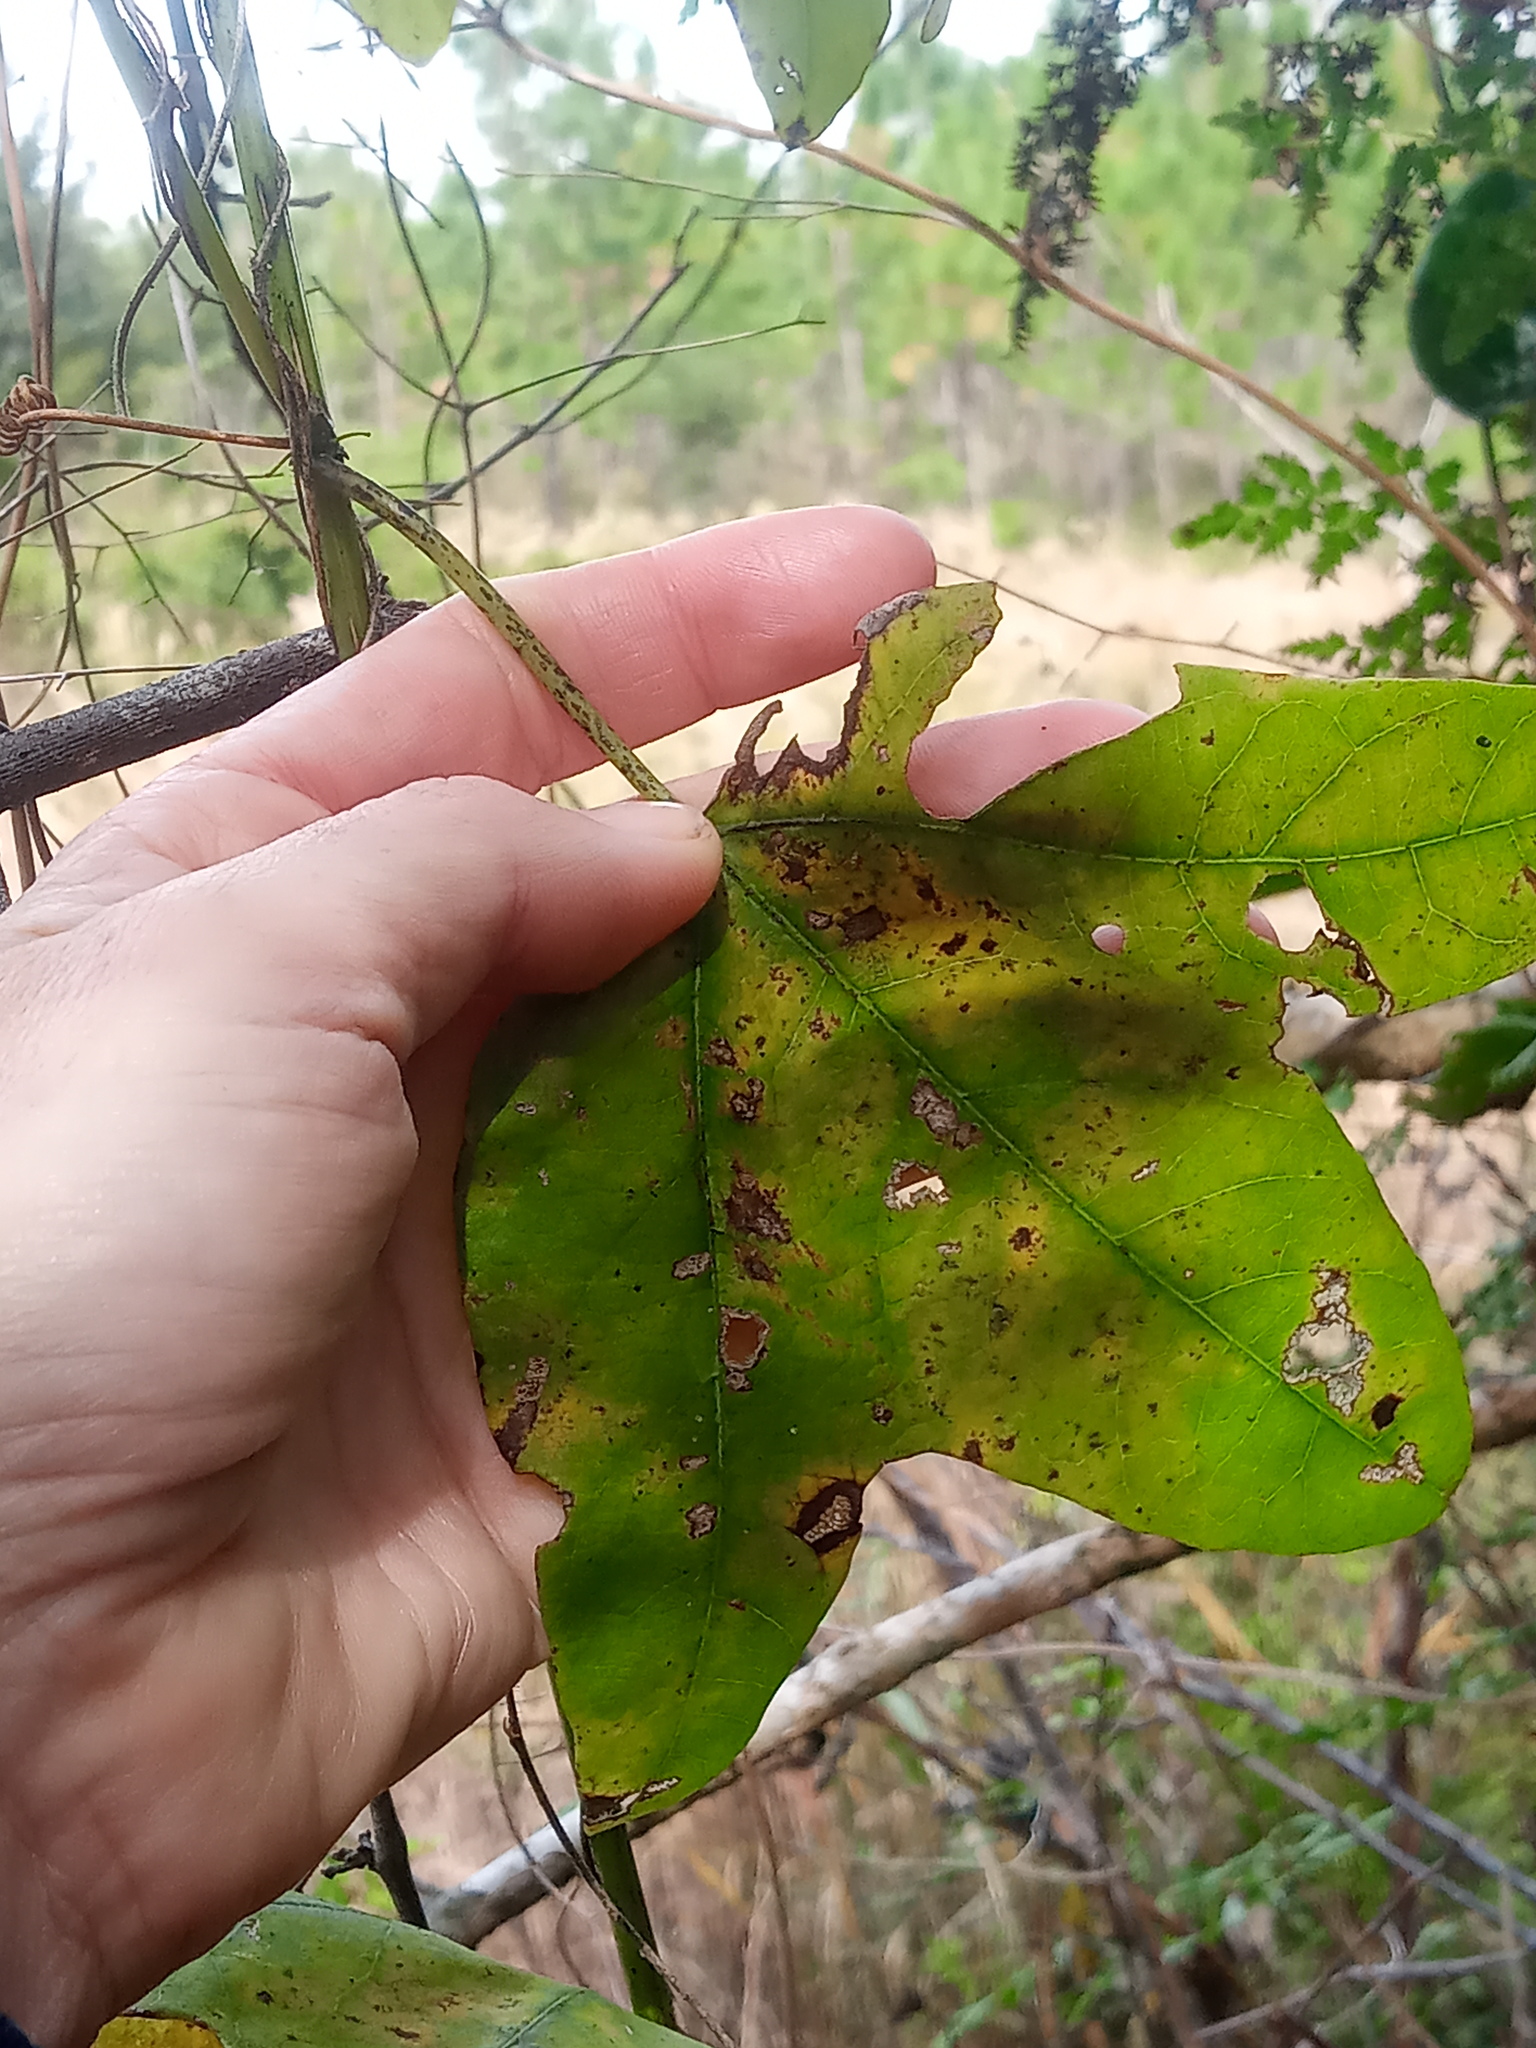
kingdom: Plantae
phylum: Tracheophyta
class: Magnoliopsida
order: Malpighiales
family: Passifloraceae
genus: Passiflora
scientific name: Passiflora lutea
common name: Yellow passionflower
